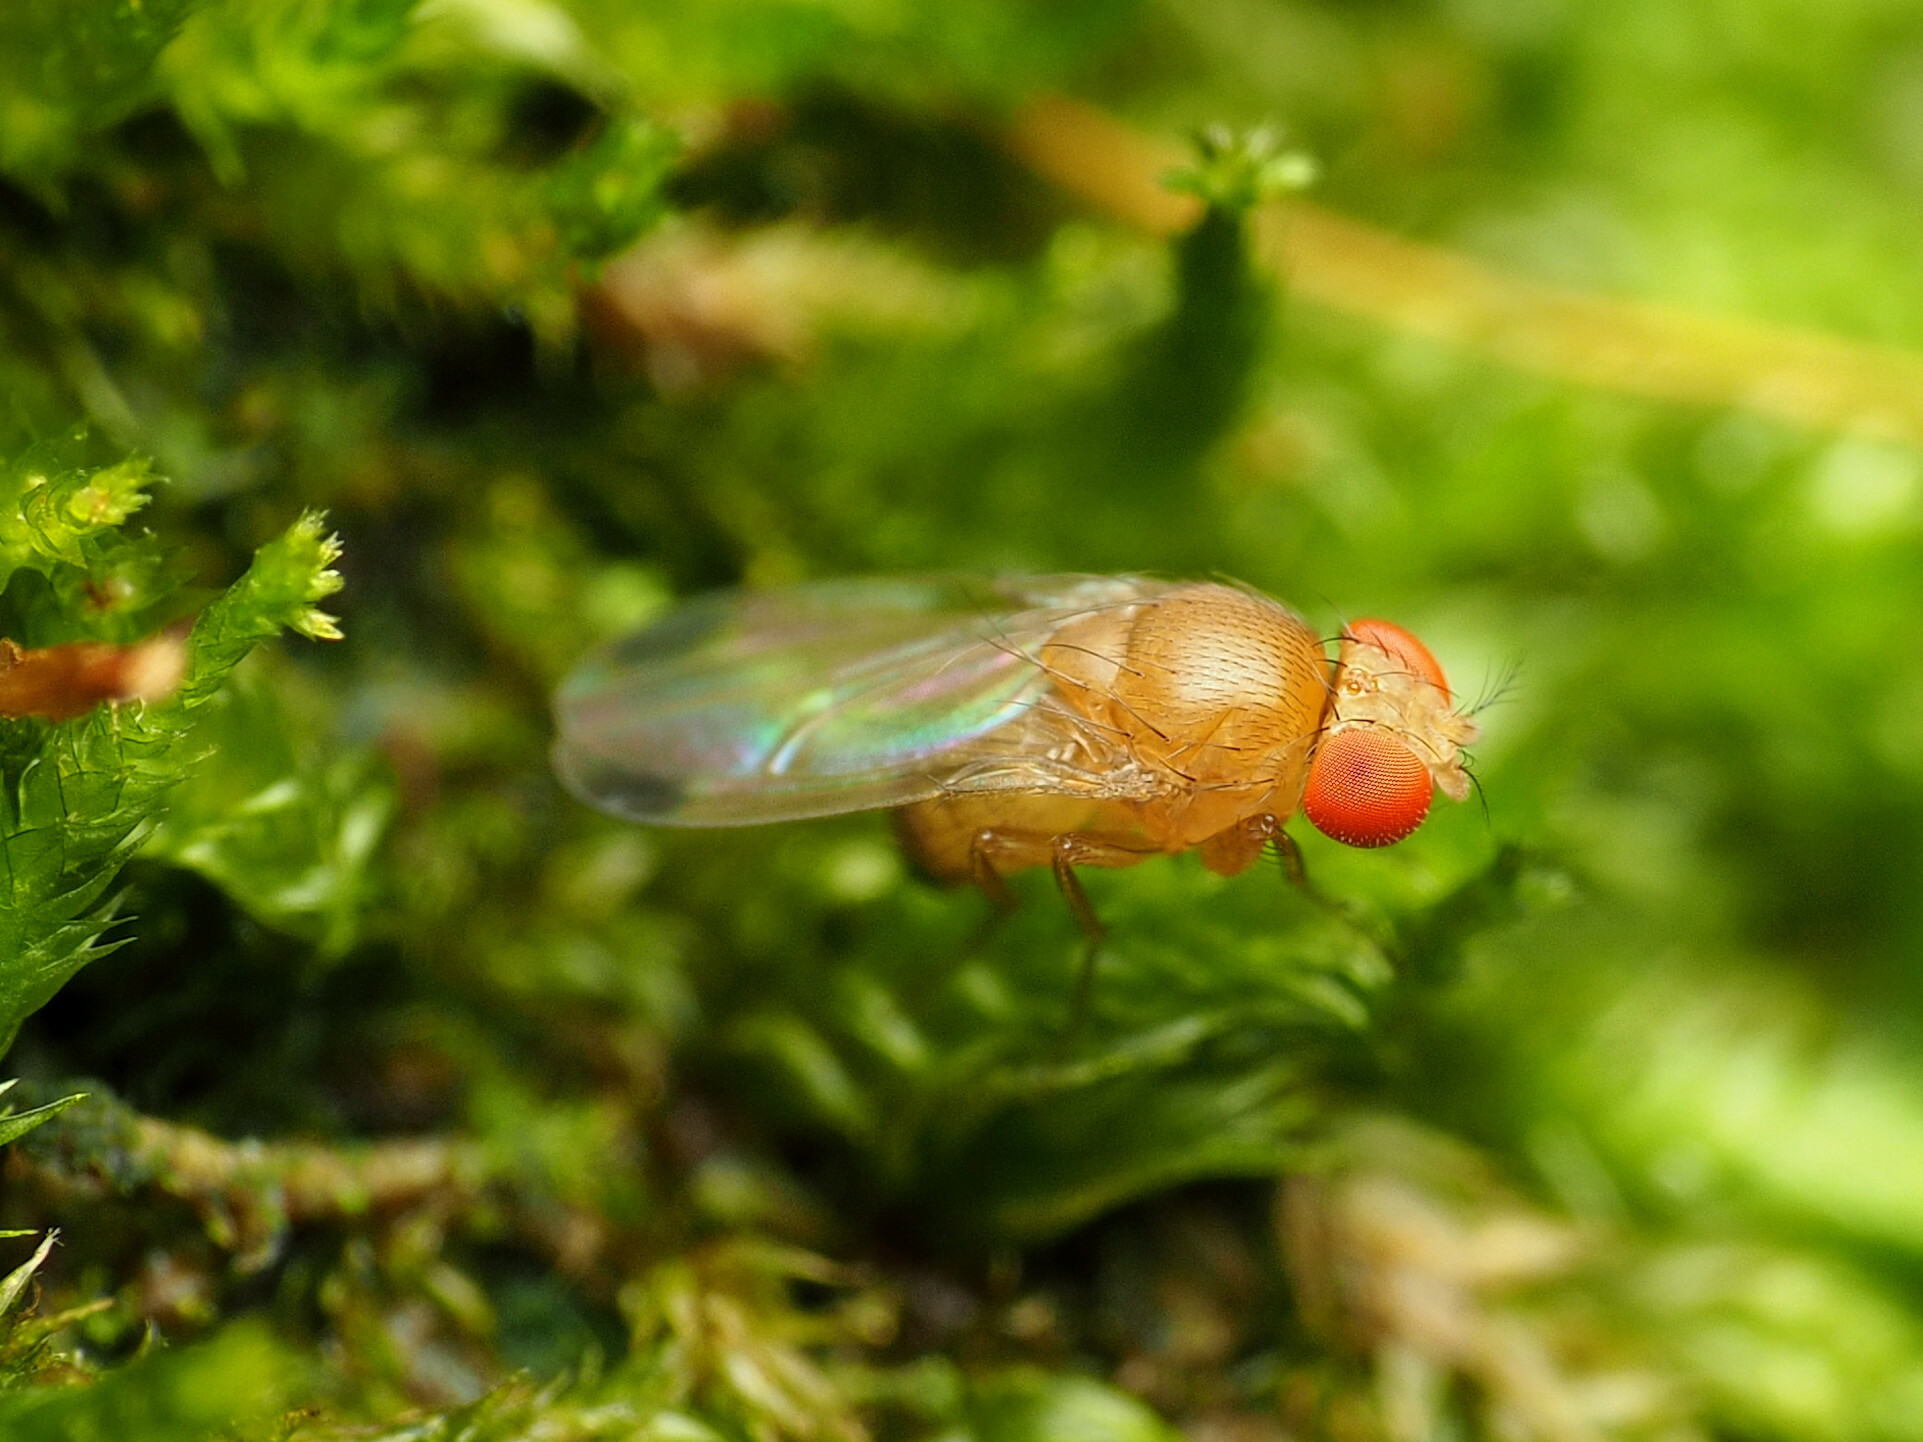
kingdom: Animalia
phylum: Arthropoda
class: Insecta
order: Diptera
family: Drosophilidae
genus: Drosophila
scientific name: Drosophila suzukii
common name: Spotted-wing drosophila
